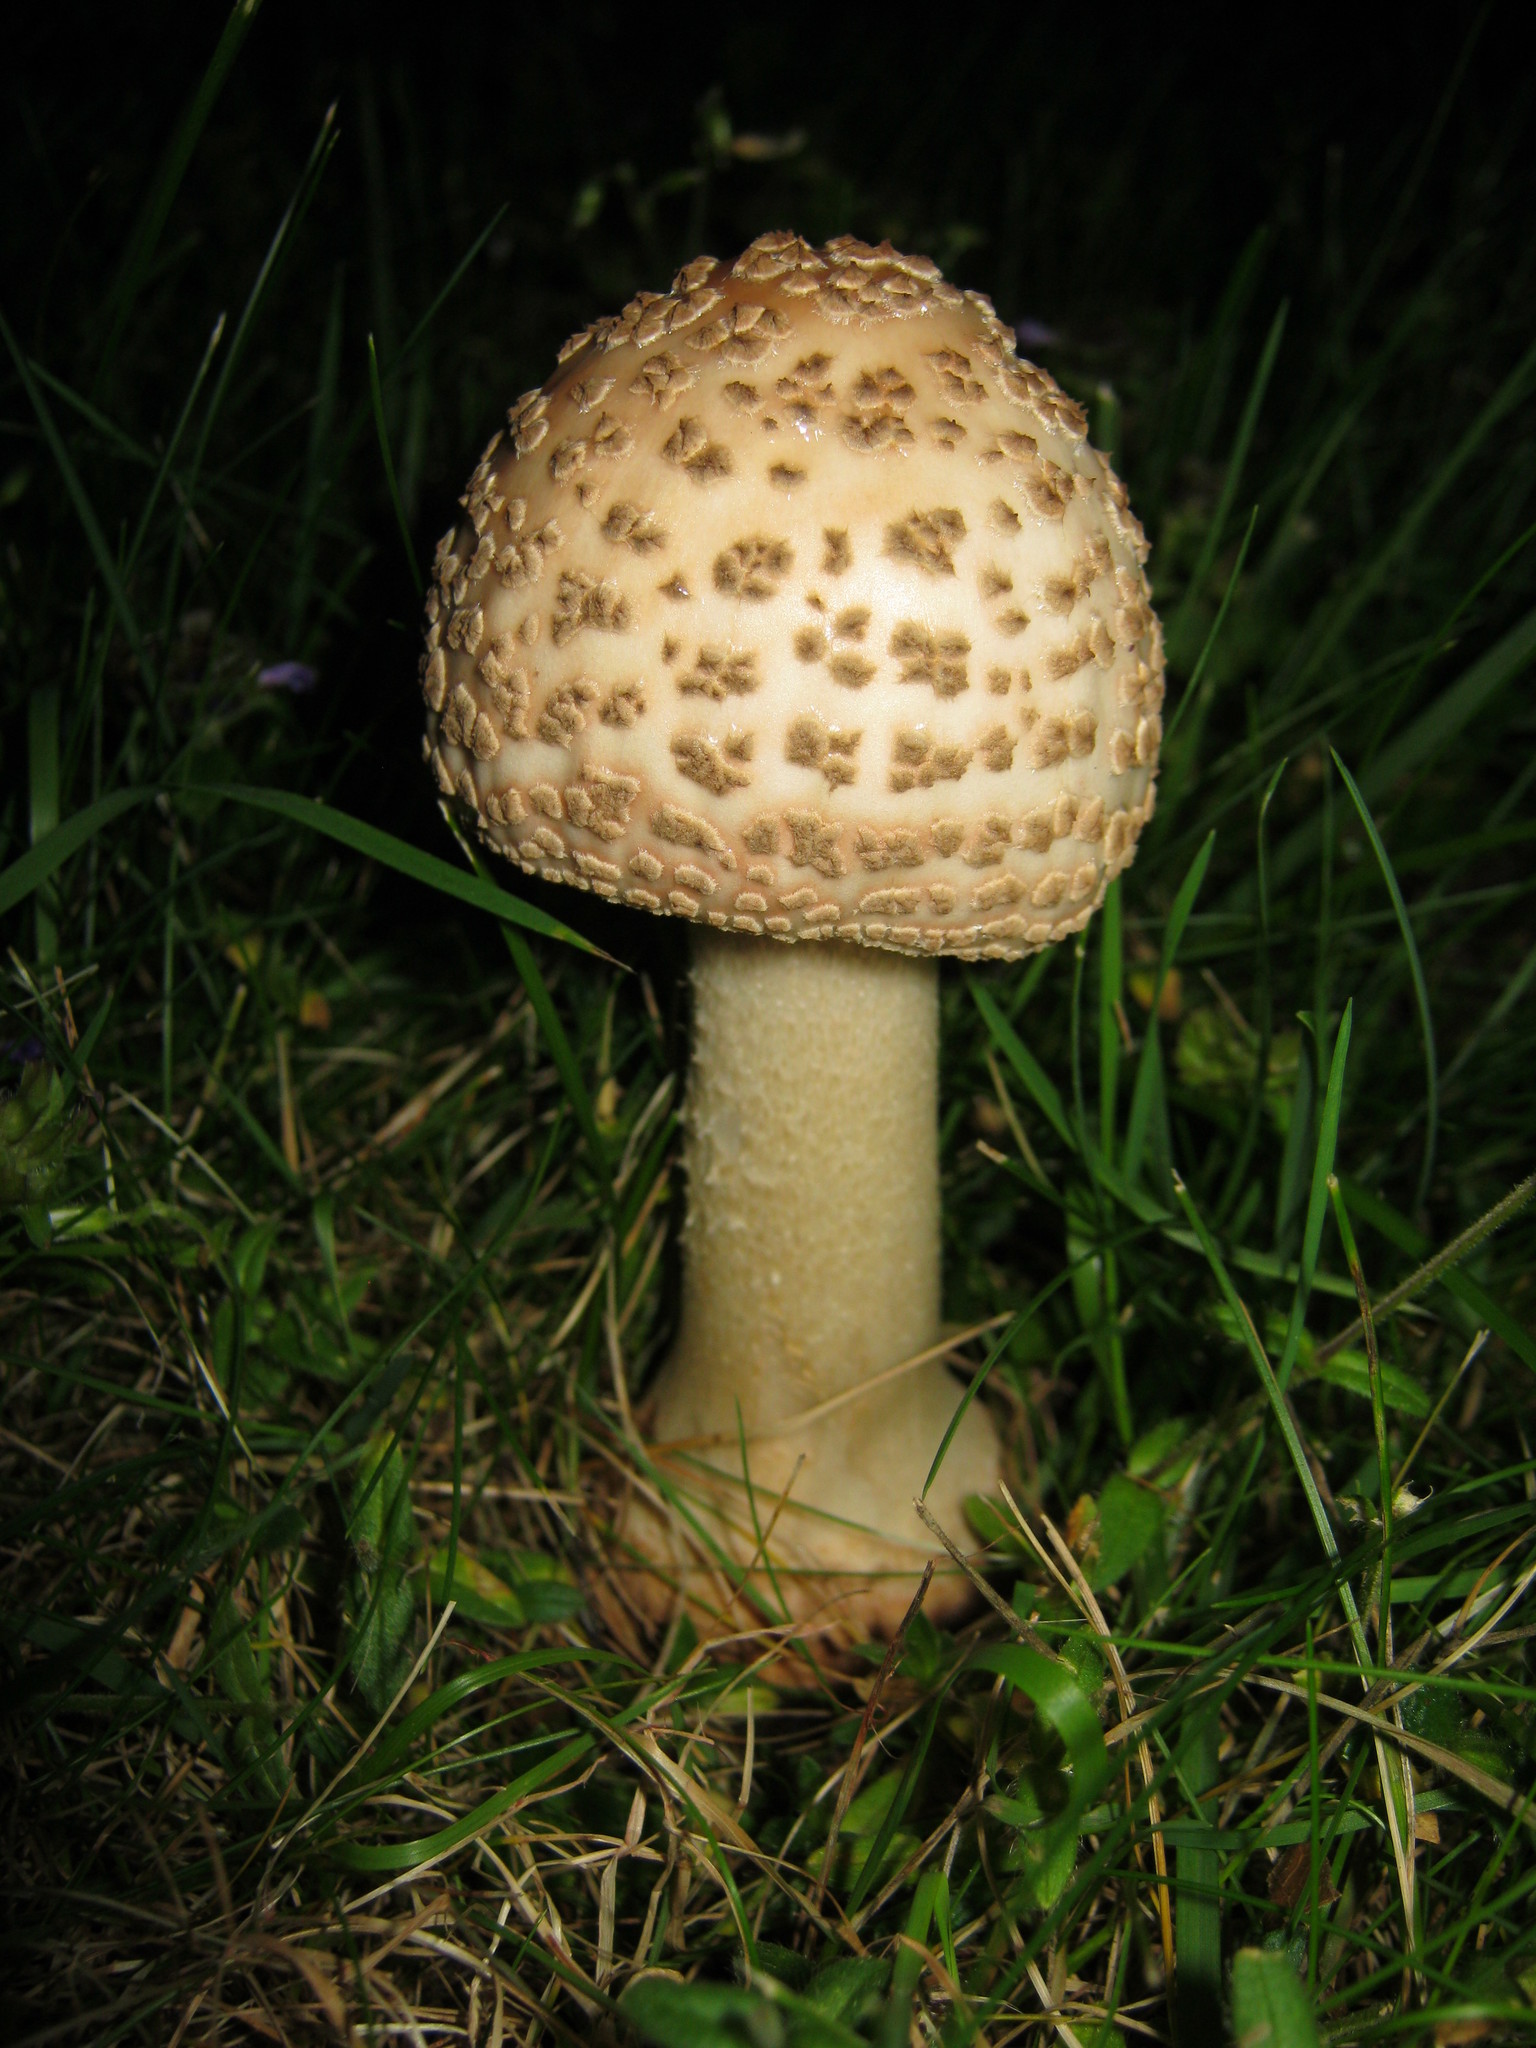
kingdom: Fungi
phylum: Basidiomycota
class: Agaricomycetes
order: Agaricales
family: Amanitaceae
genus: Amanita
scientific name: Amanita rubescens
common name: Blusher
